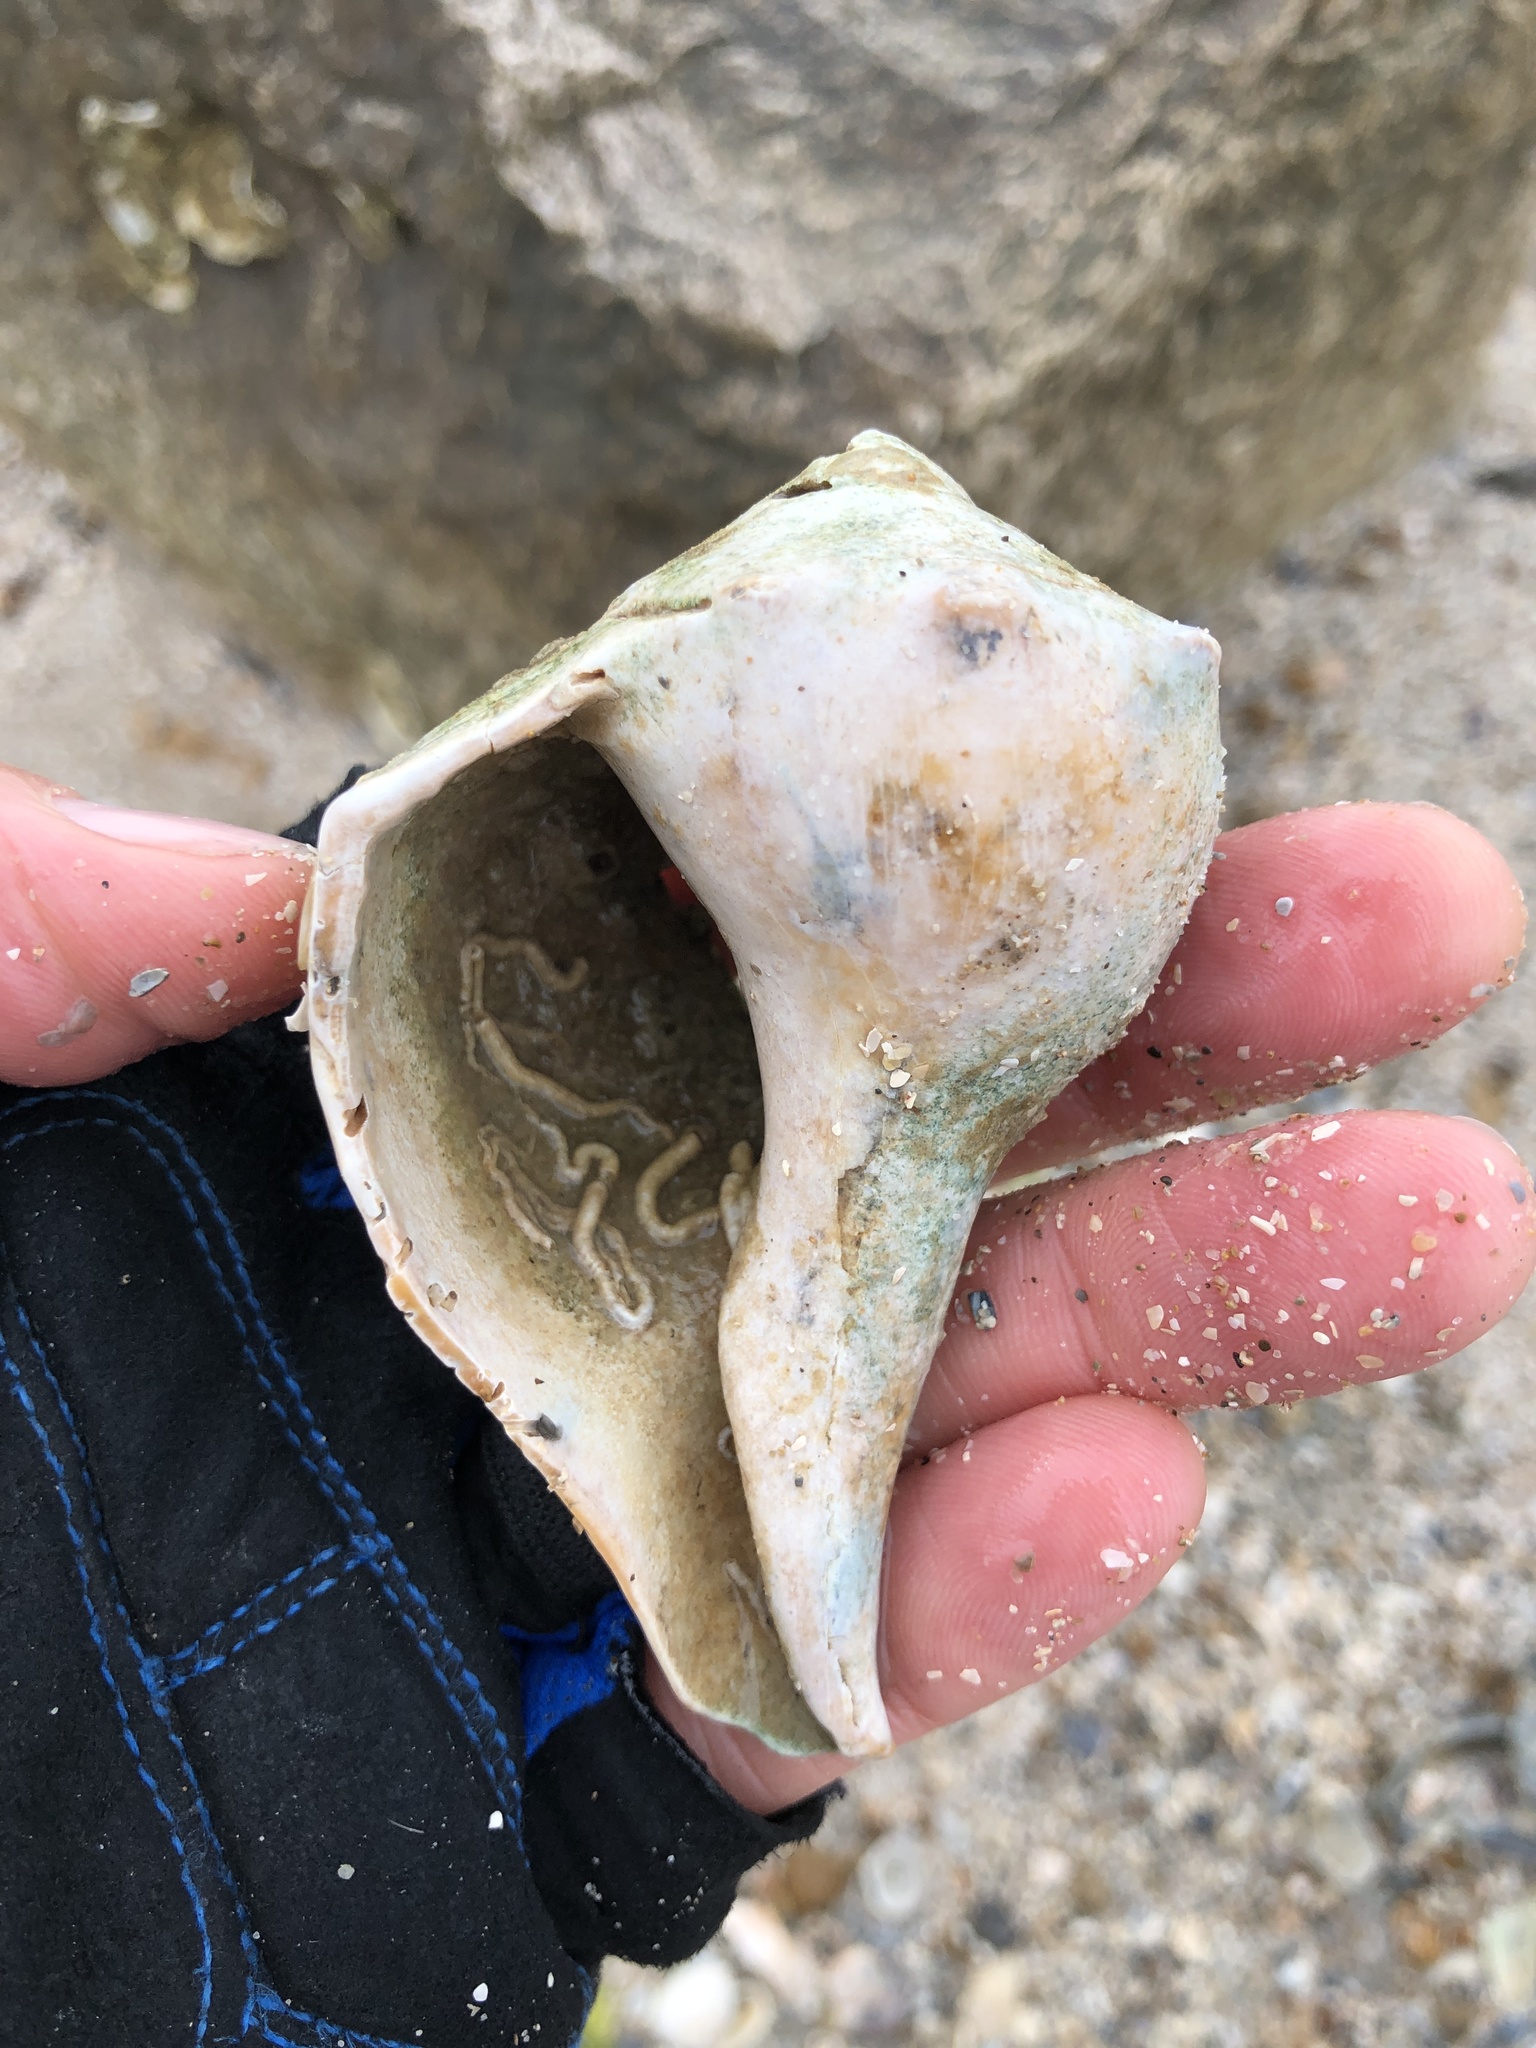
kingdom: Animalia
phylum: Mollusca
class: Gastropoda
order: Neogastropoda
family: Busyconidae
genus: Sinistrofulgur
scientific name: Sinistrofulgur pulleyi
